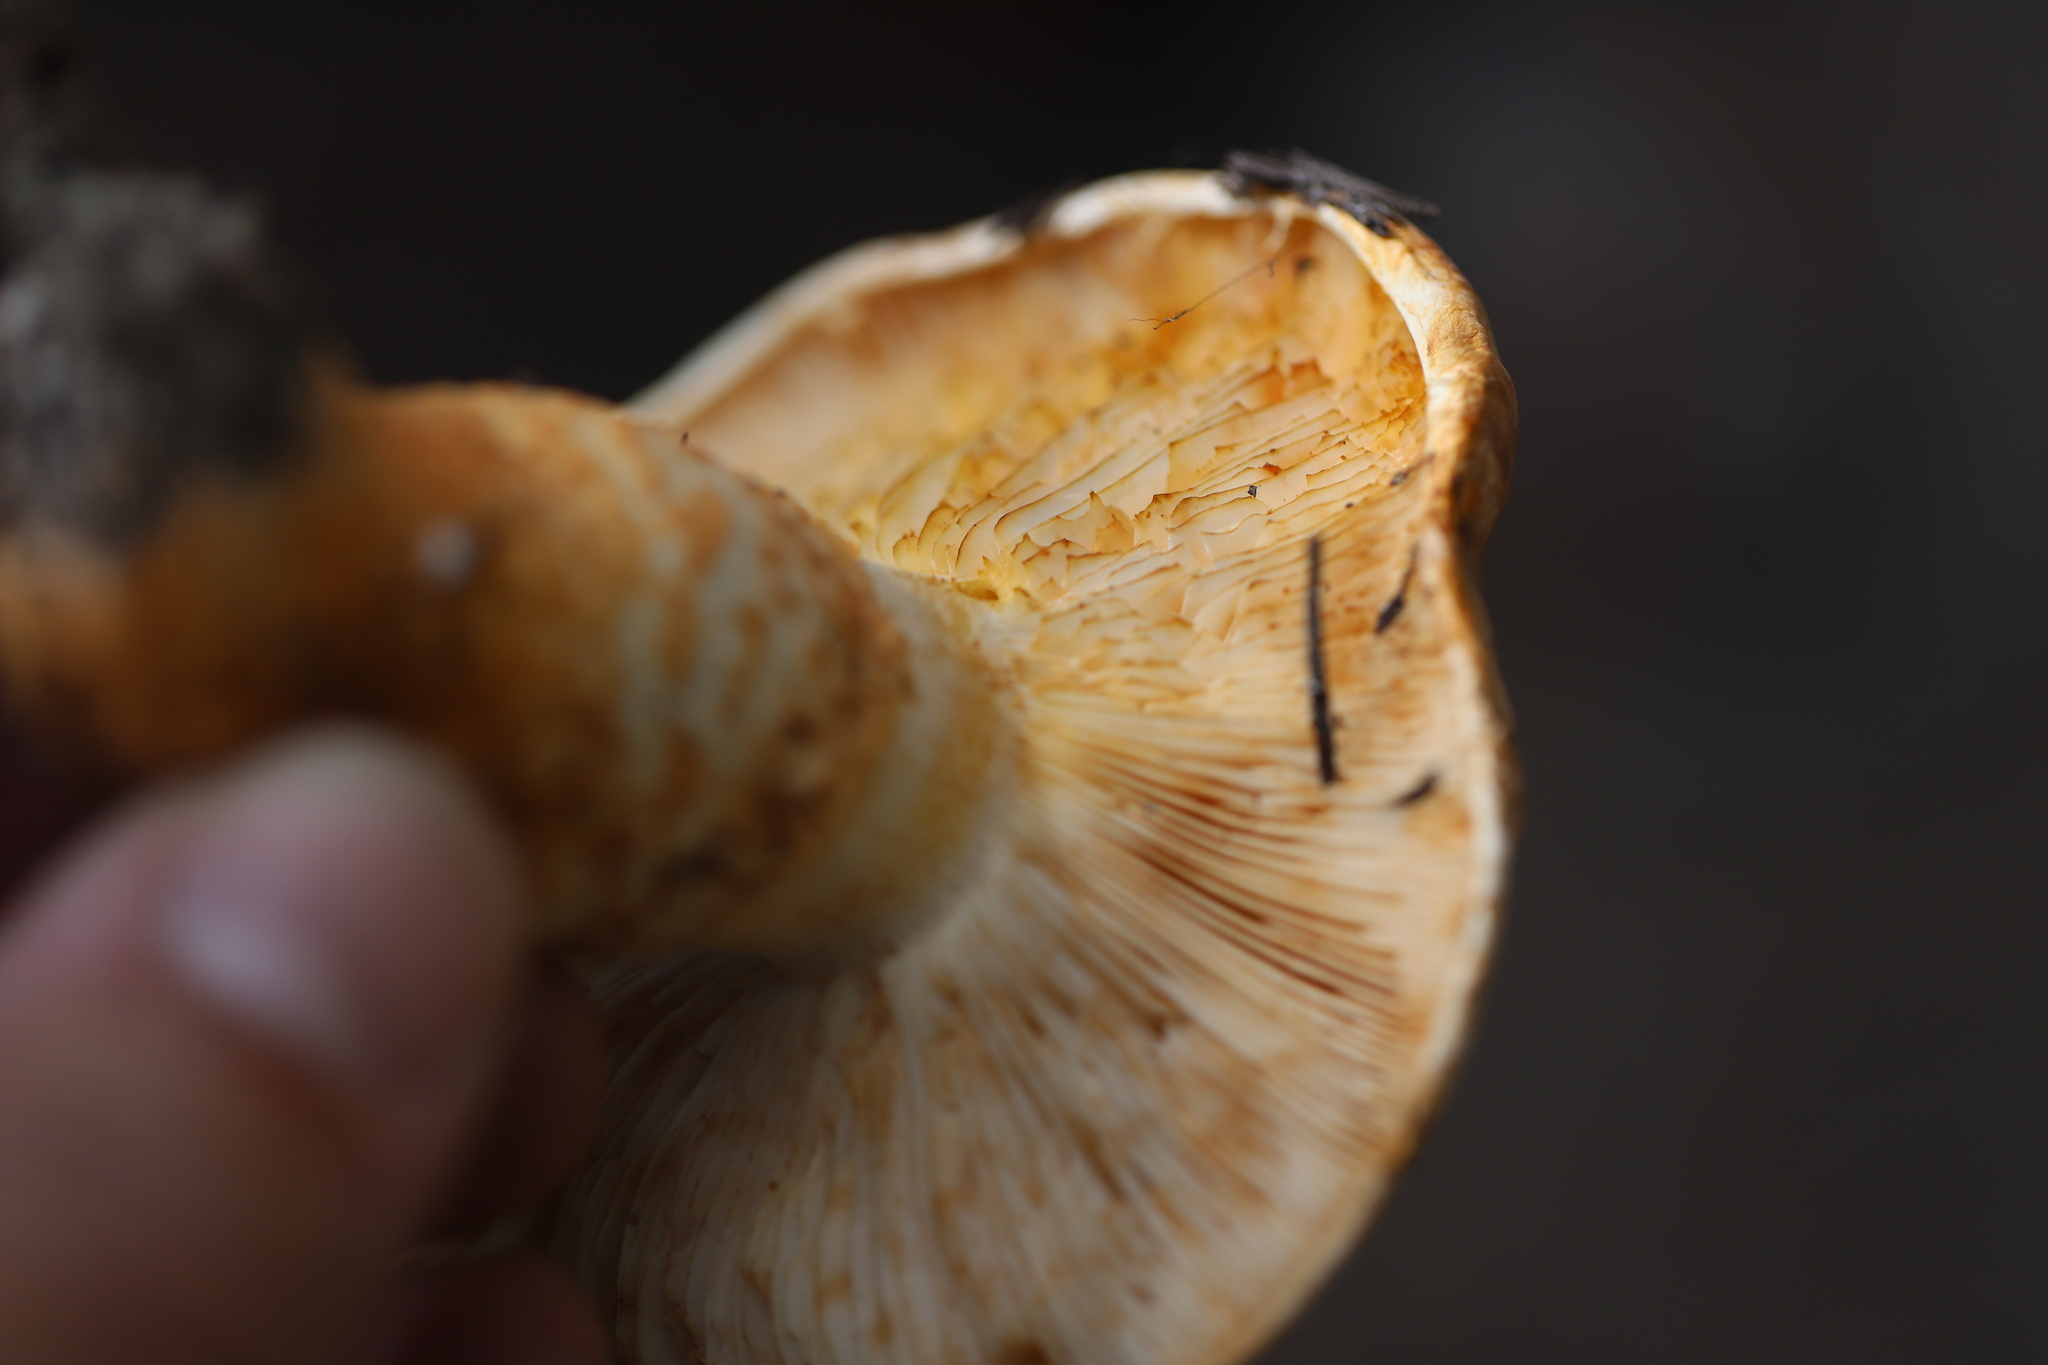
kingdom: Fungi
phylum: Basidiomycota
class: Agaricomycetes
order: Agaricales
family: Tricholomataceae
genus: Tricholoma
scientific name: Tricholoma focale
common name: Booted knight
